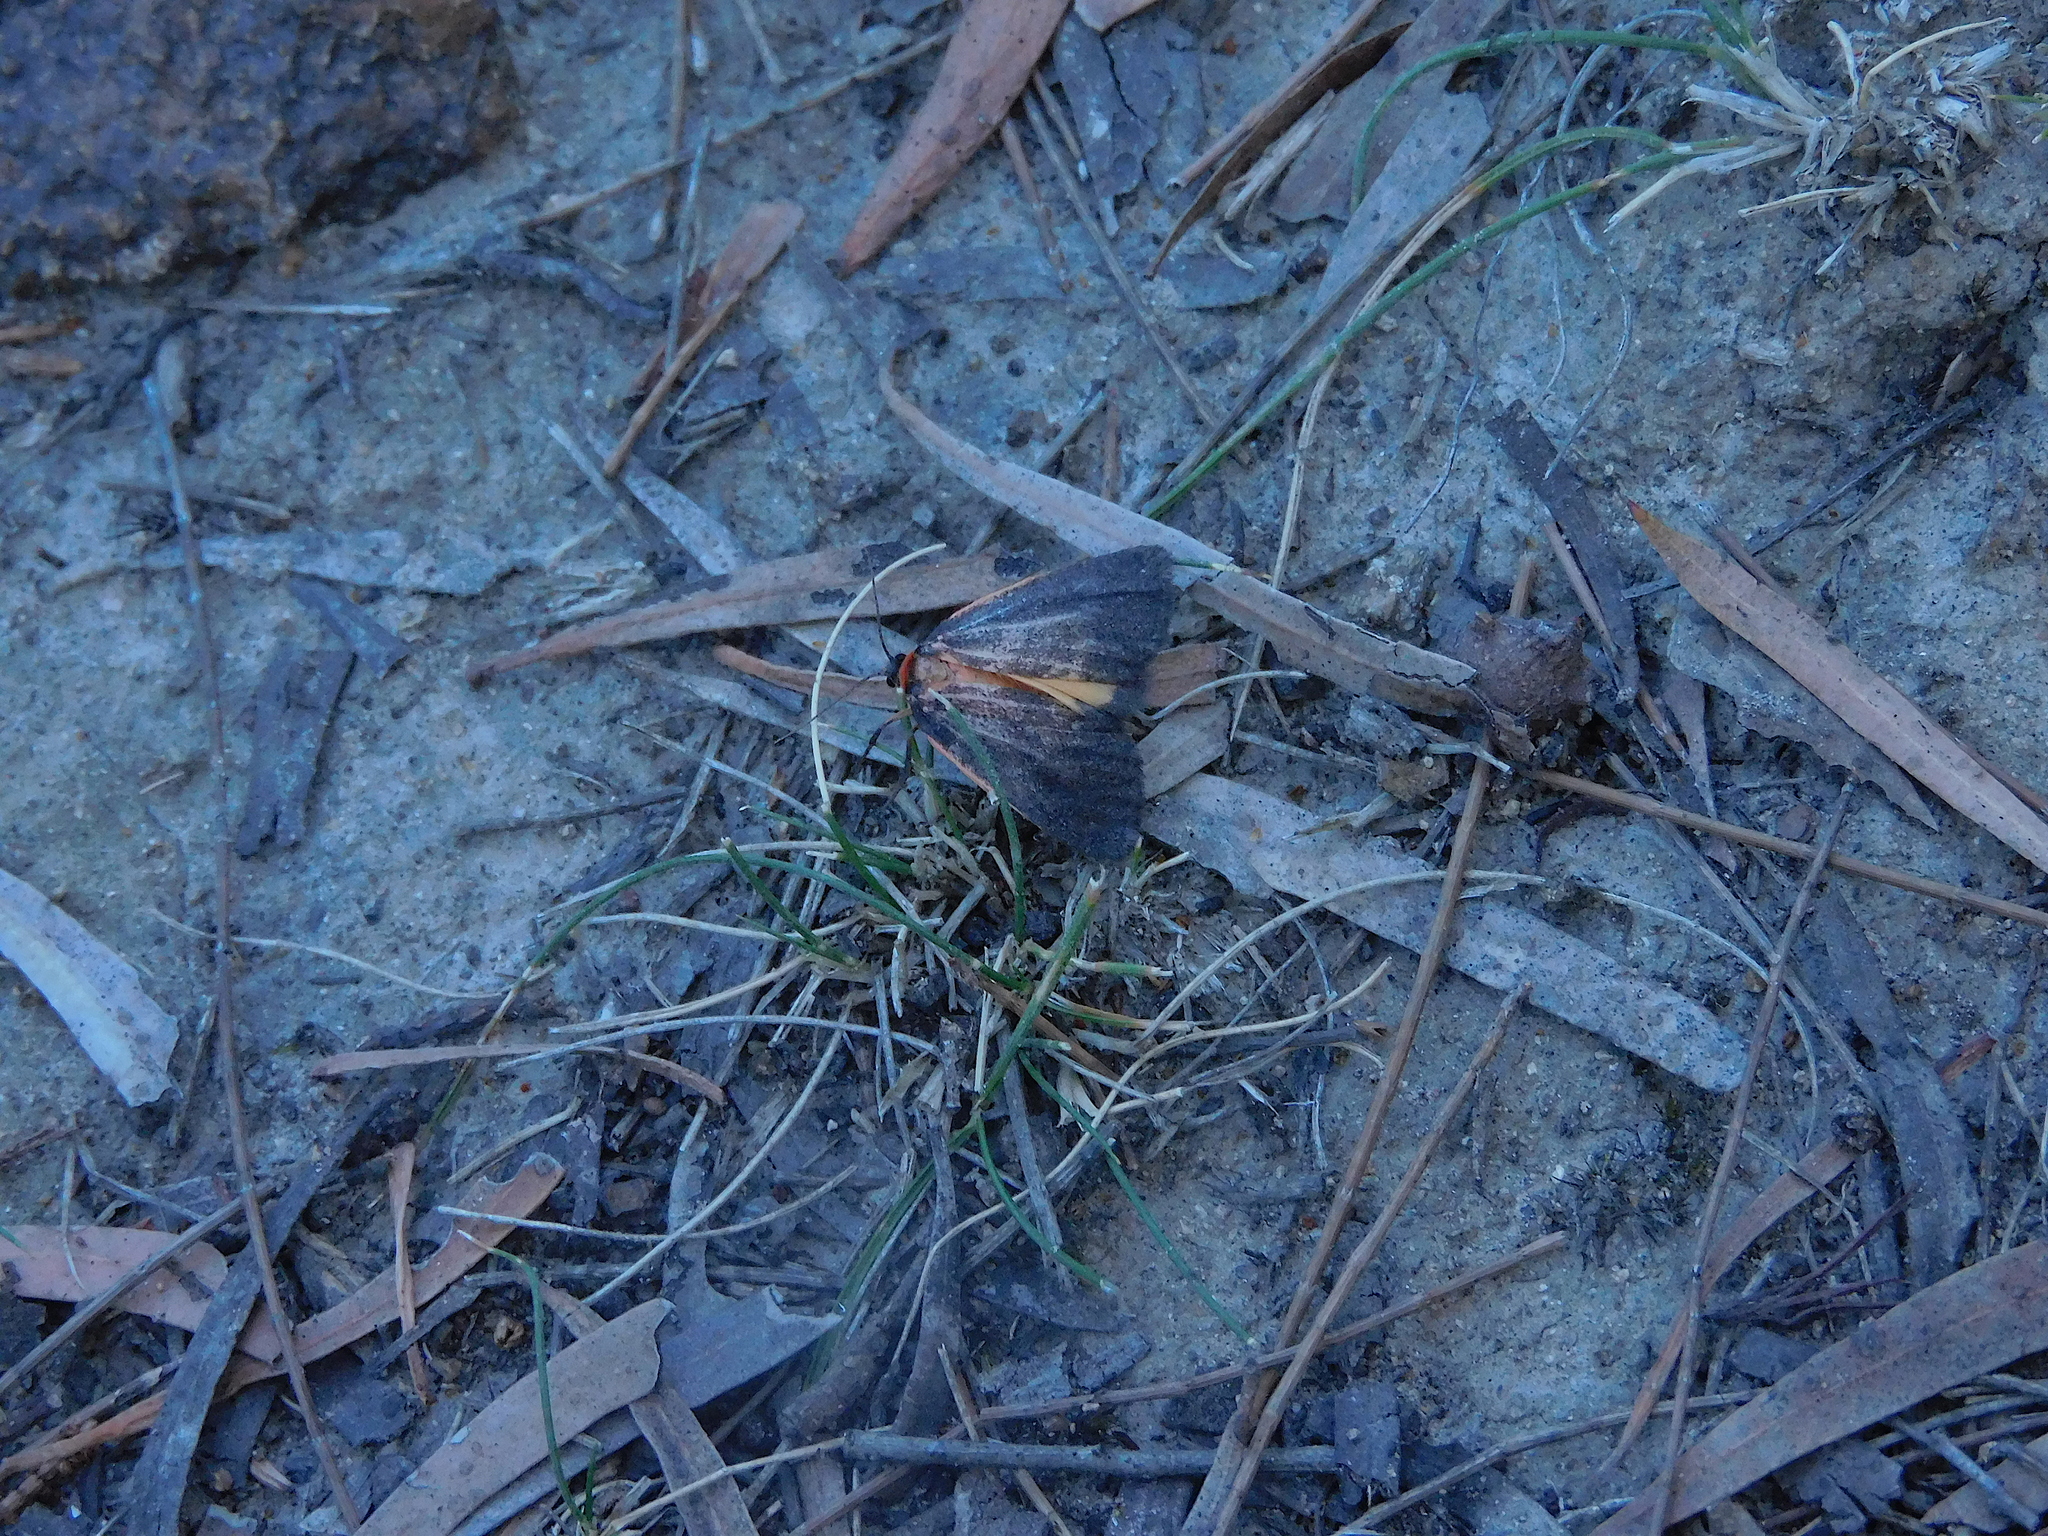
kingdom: Animalia
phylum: Arthropoda
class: Insecta
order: Lepidoptera
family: Erebidae
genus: Castulo
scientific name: Castulo doubledayi
